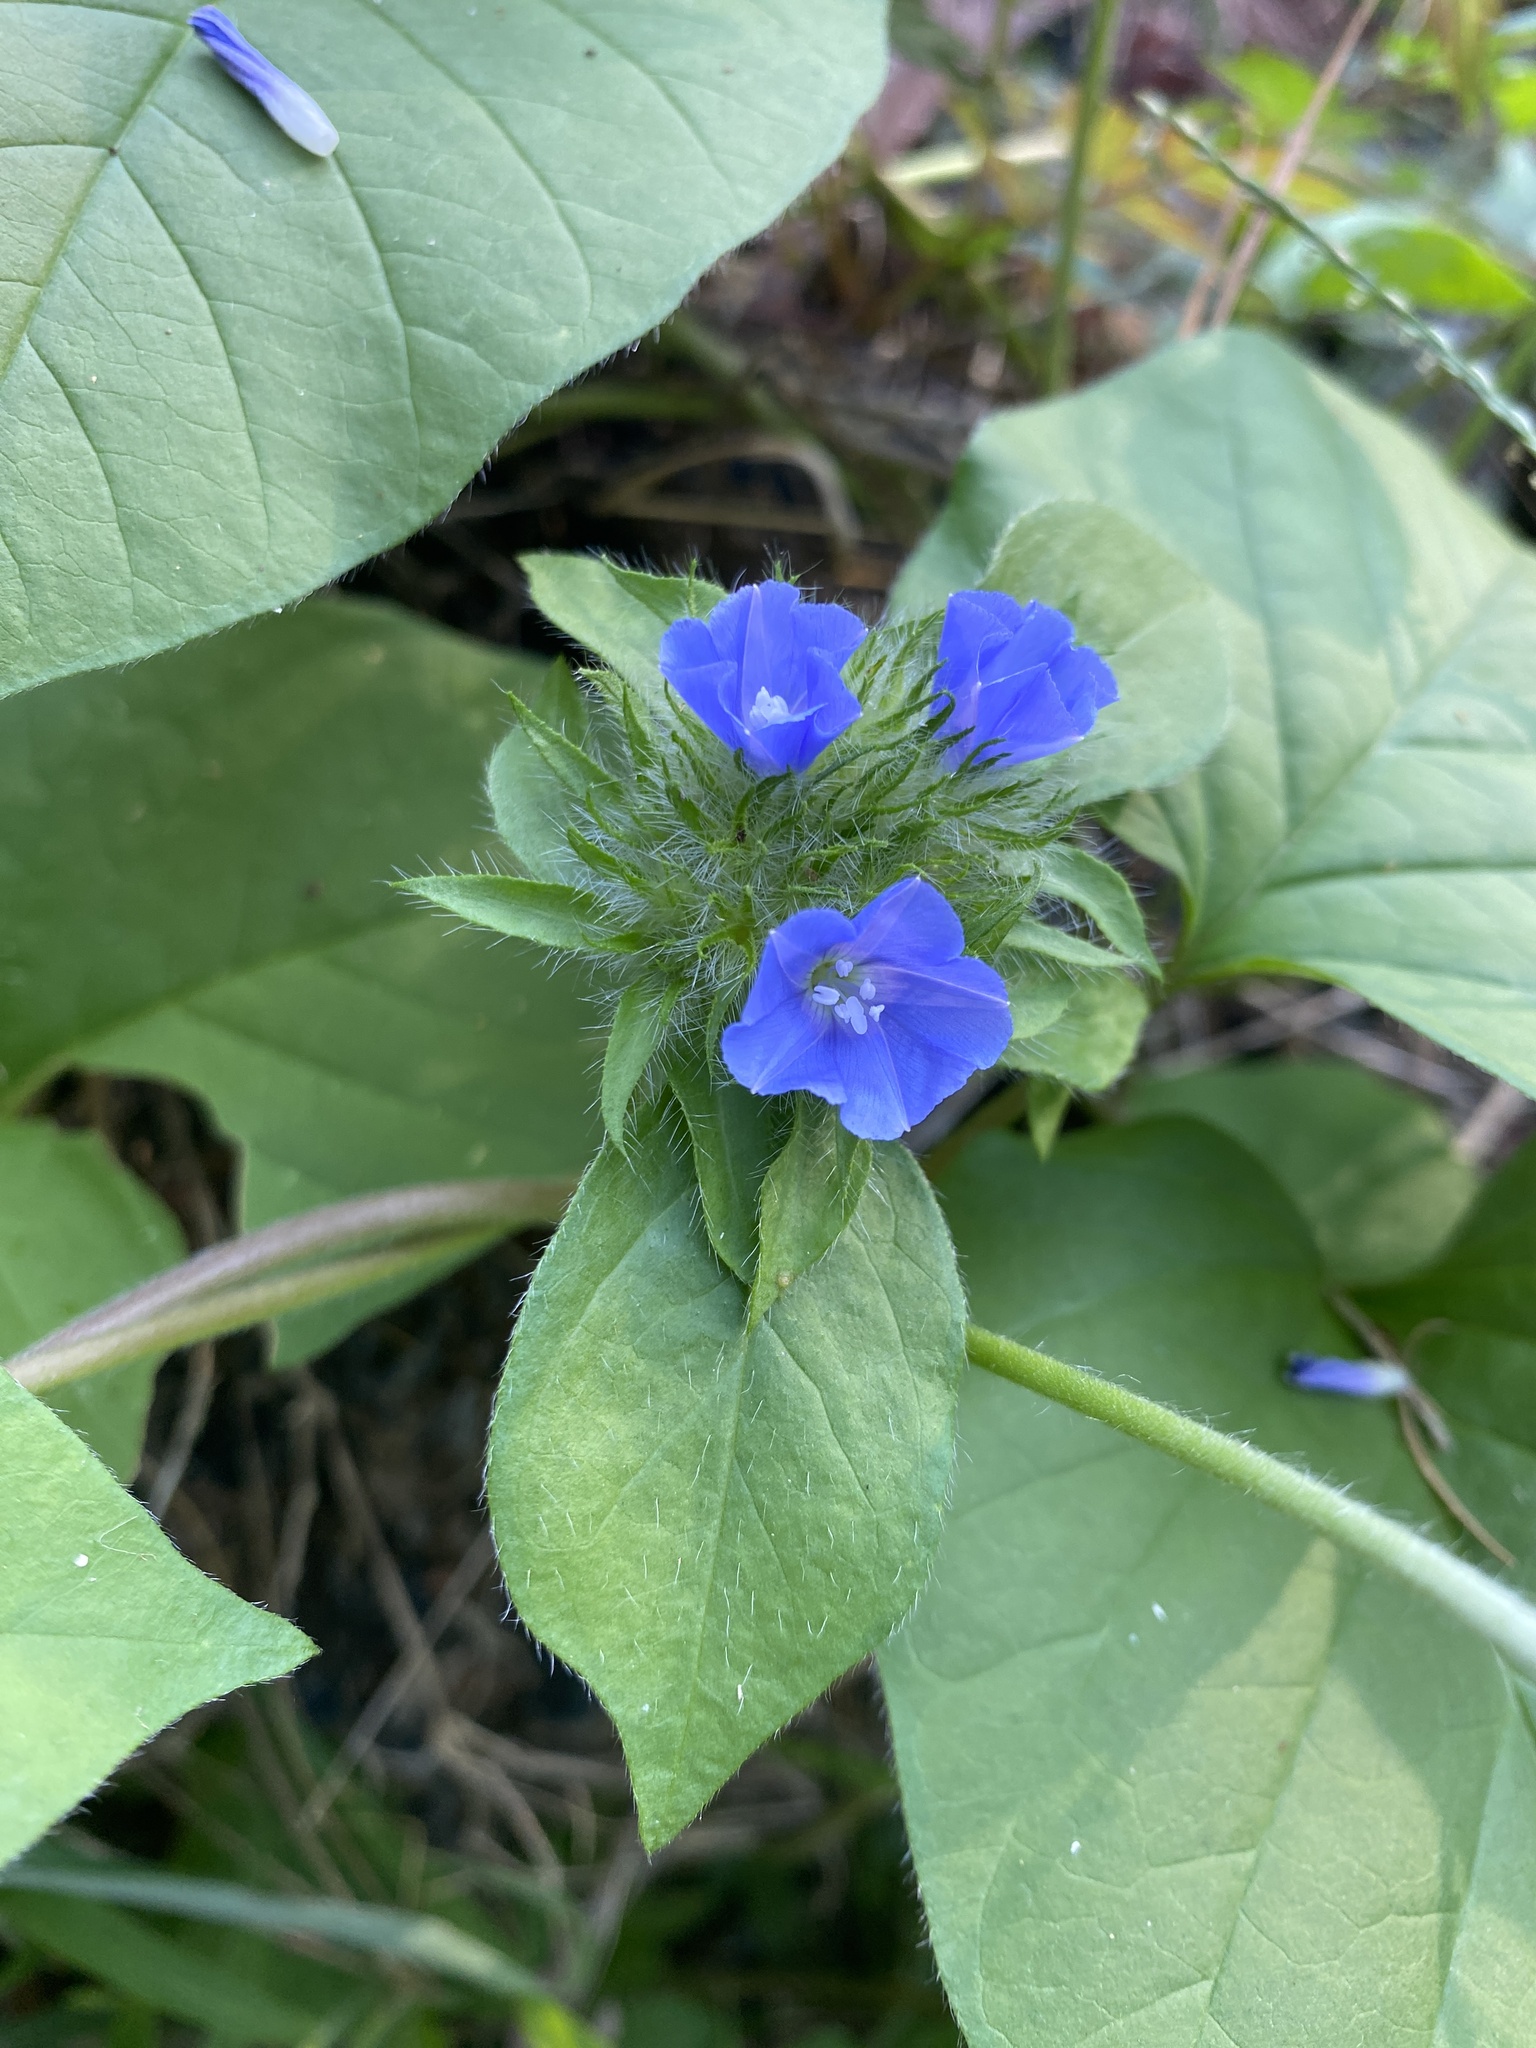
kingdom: Plantae
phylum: Tracheophyta
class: Magnoliopsida
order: Solanales
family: Convolvulaceae
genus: Jacquemontia
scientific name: Jacquemontia tamnifolia
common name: Hairy clustervine
